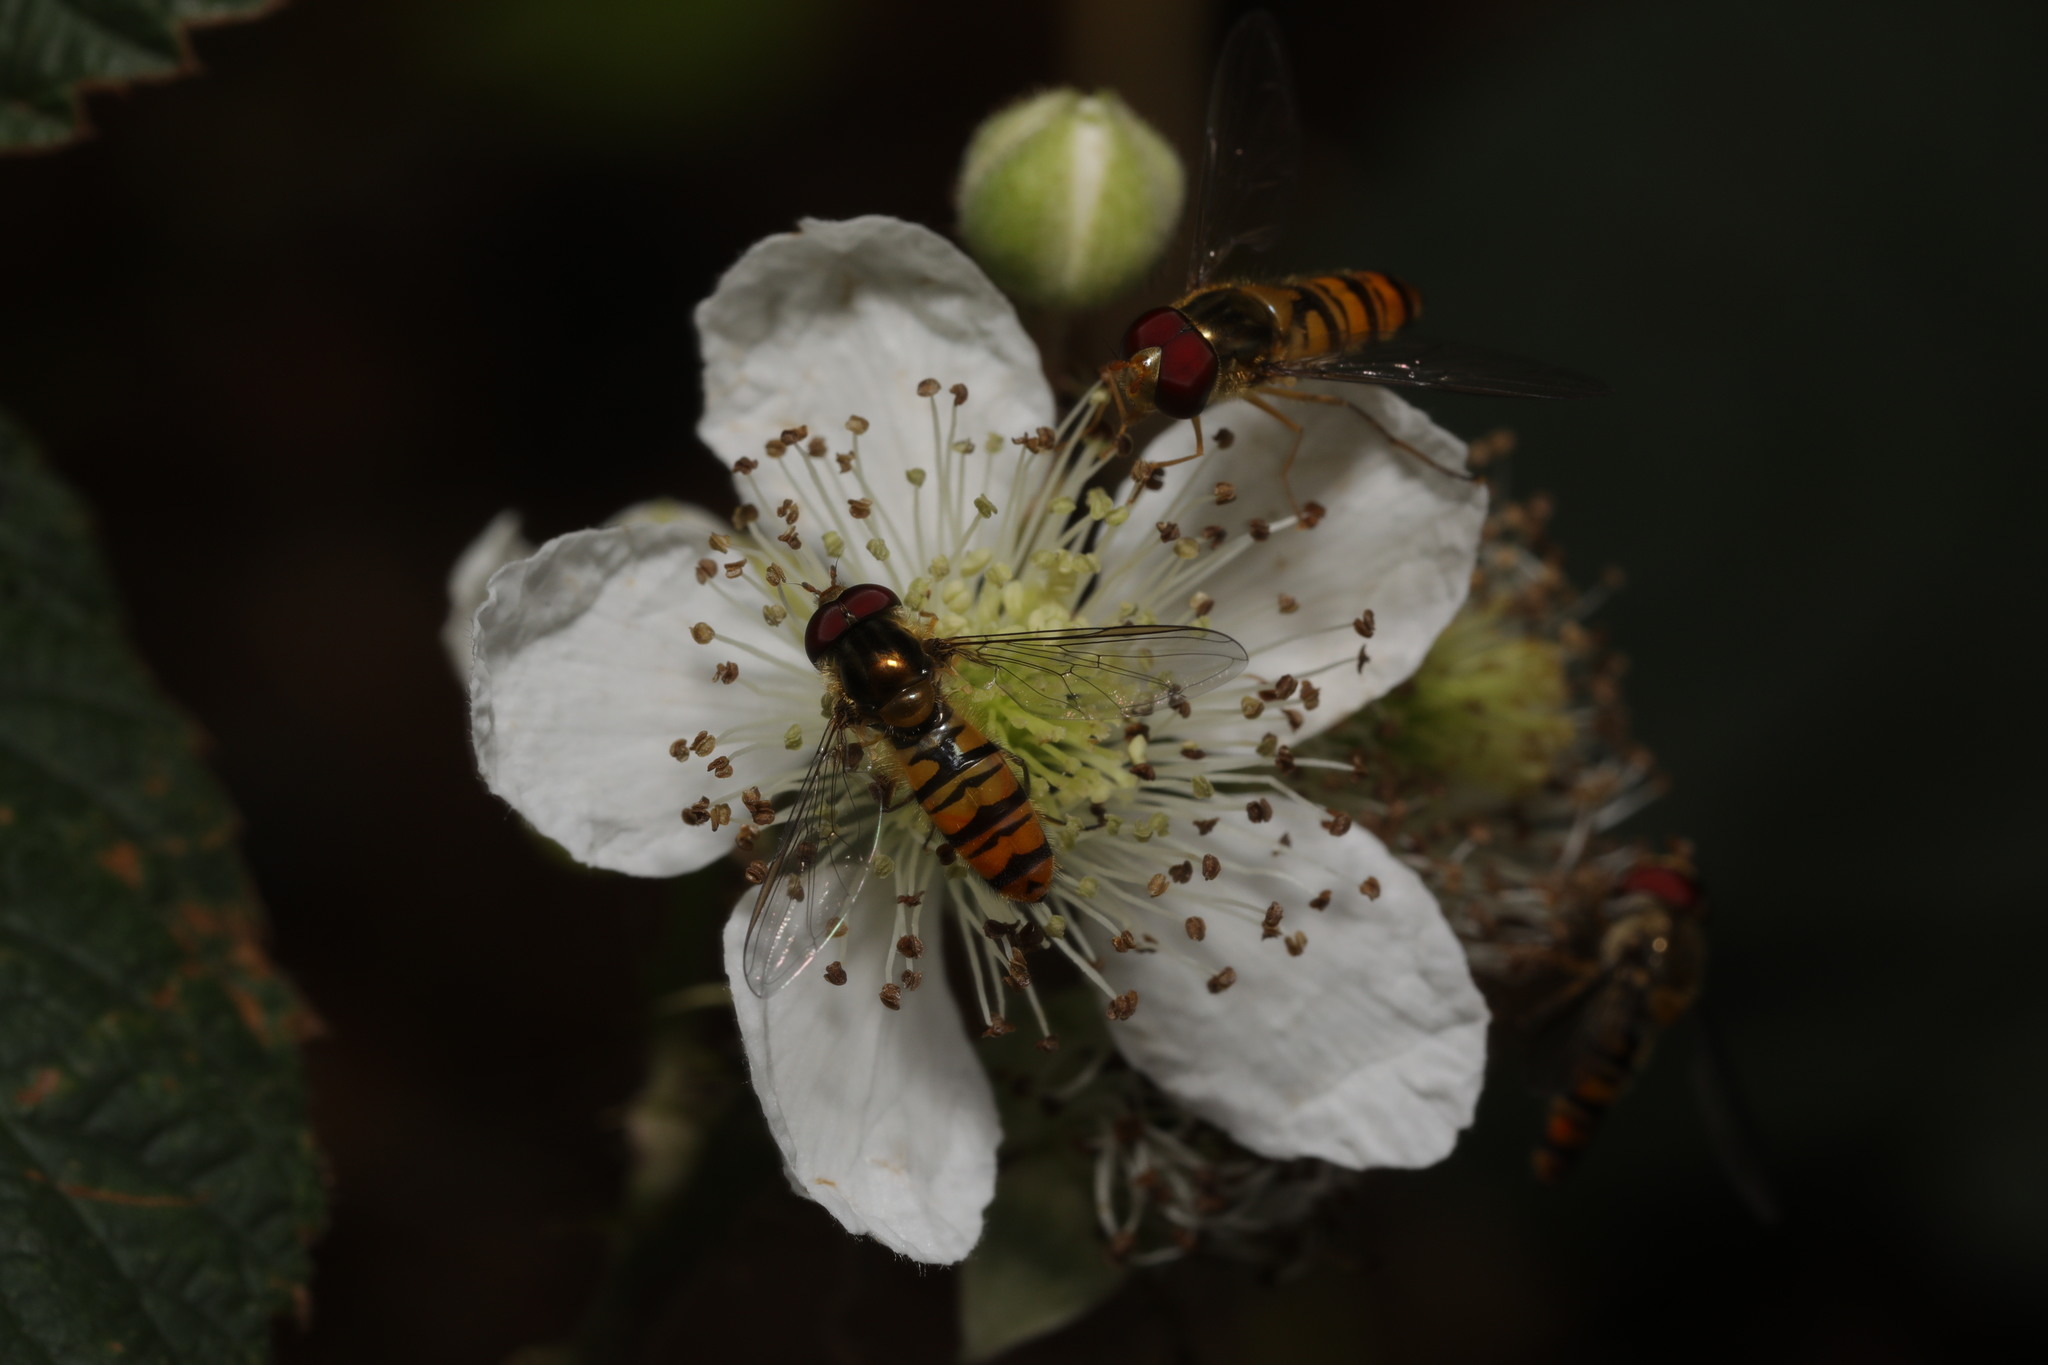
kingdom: Animalia
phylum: Arthropoda
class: Insecta
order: Diptera
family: Syrphidae
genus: Episyrphus
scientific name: Episyrphus balteatus
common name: Marmalade hoverfly
